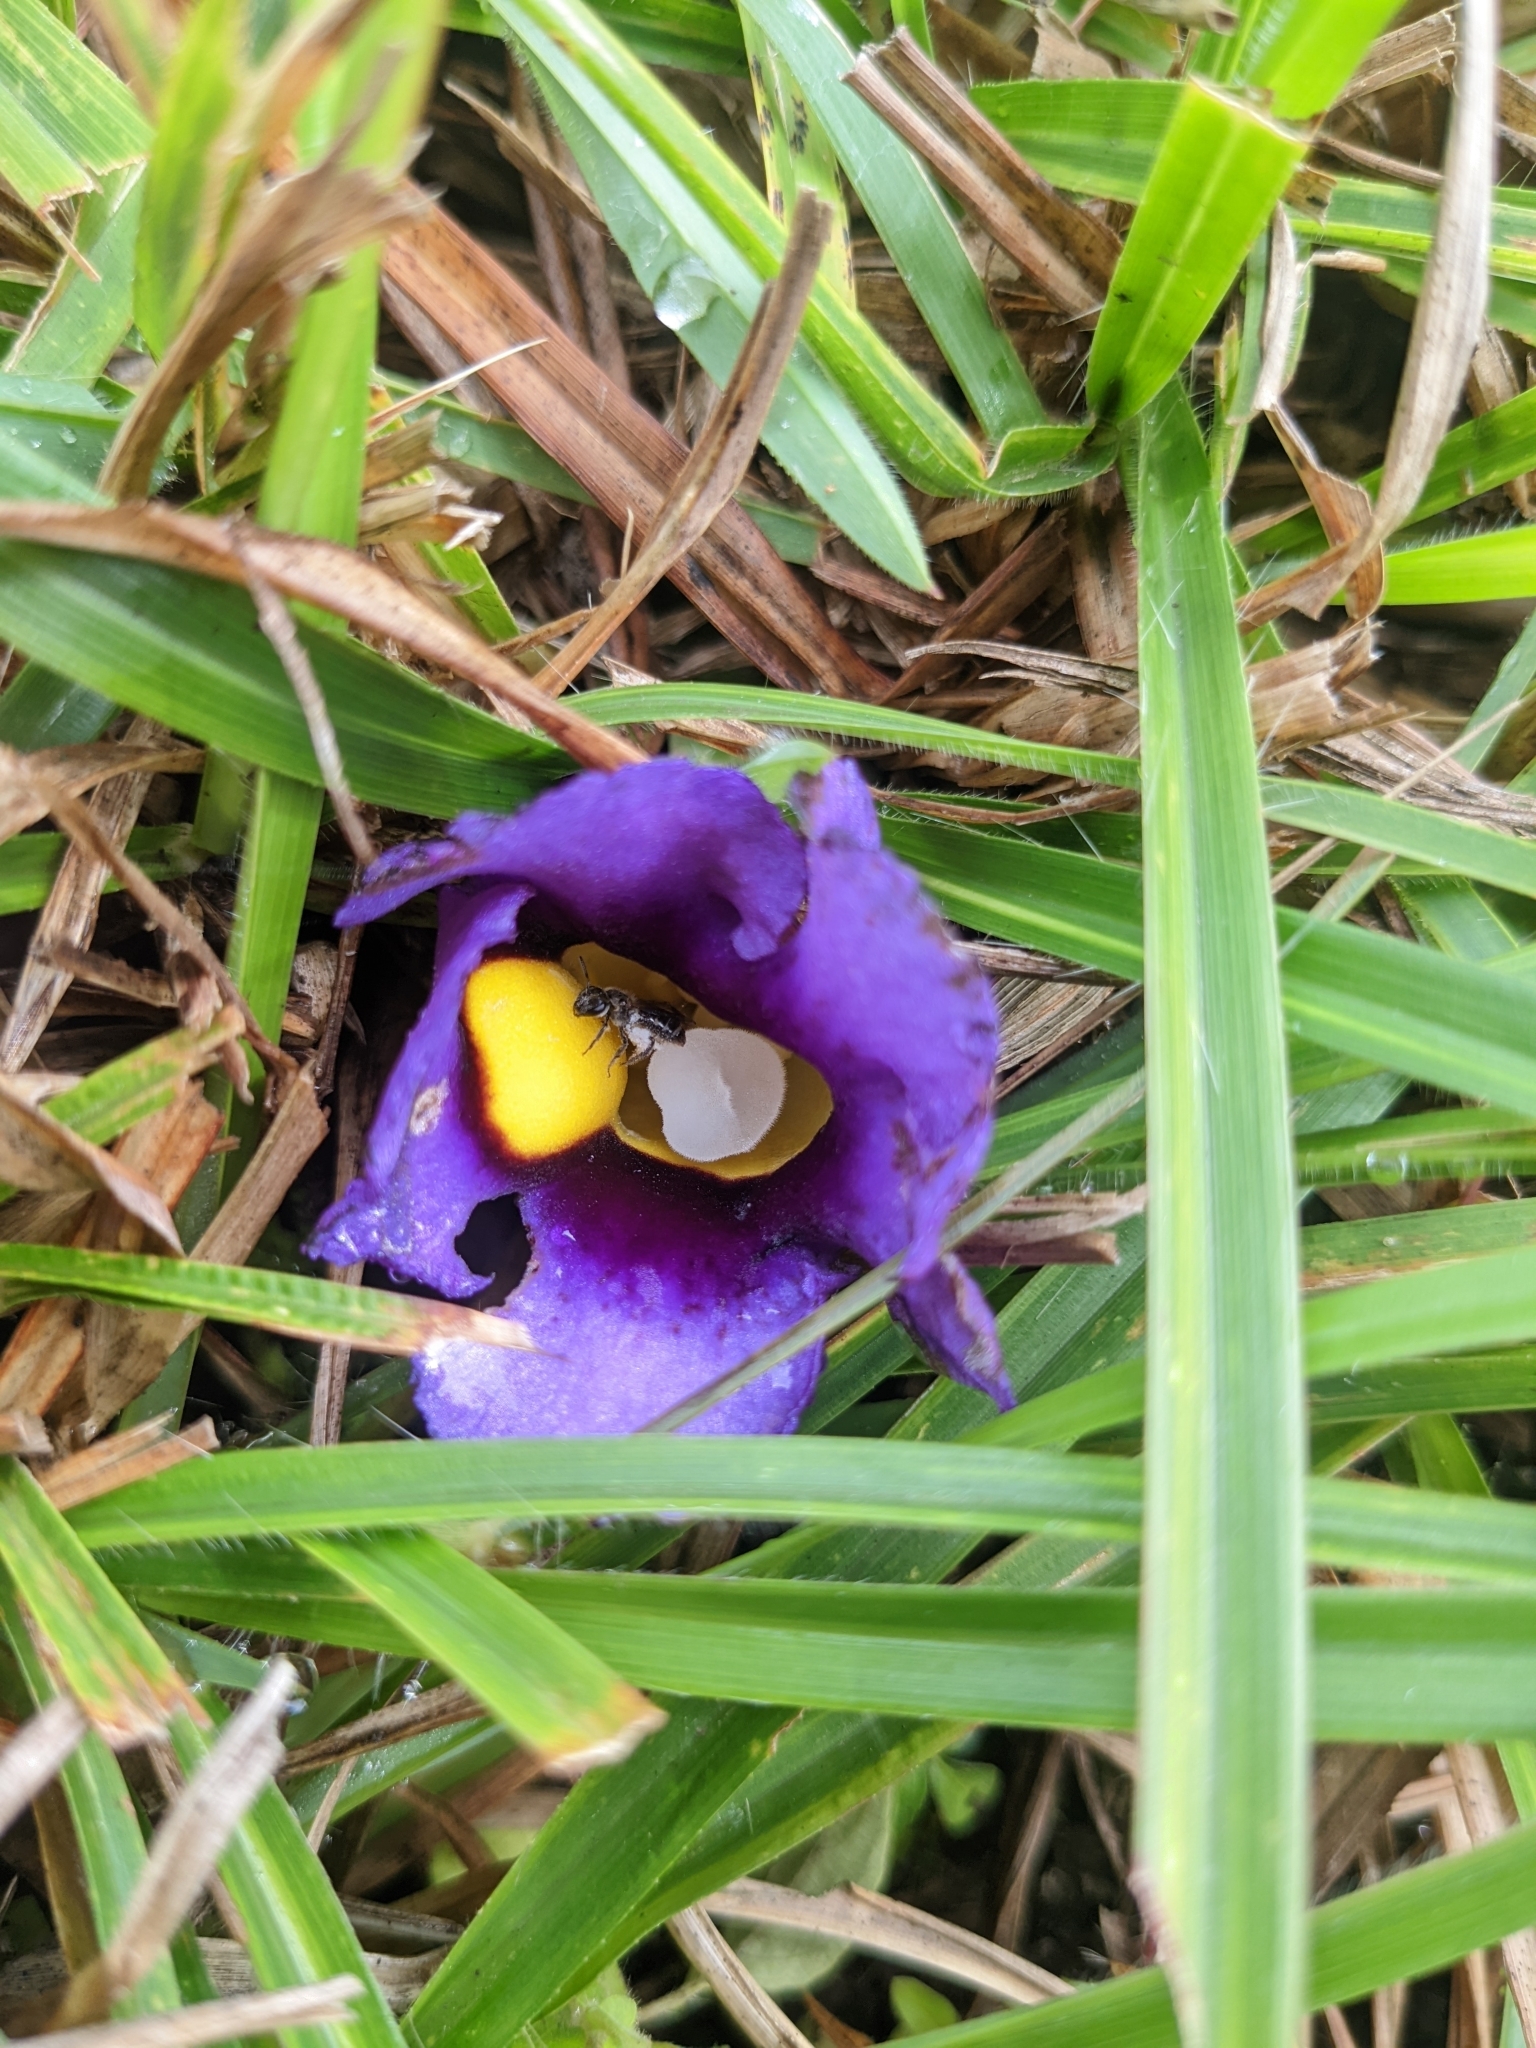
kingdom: Plantae
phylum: Tracheophyta
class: Magnoliopsida
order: Lamiales
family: Orobanchaceae
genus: Aeginetia
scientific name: Aeginetia acaulis
